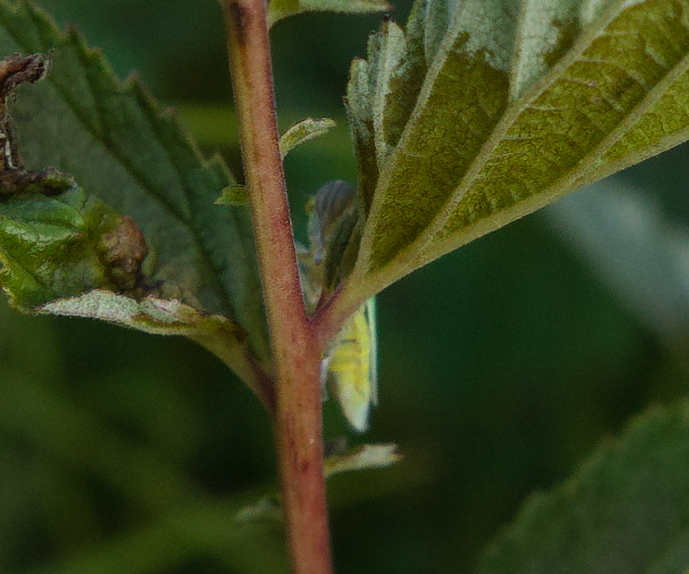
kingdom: Animalia
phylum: Arthropoda
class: Insecta
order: Hemiptera
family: Cicadellidae
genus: Cicadella
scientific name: Cicadella viridis
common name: Leafhopper
